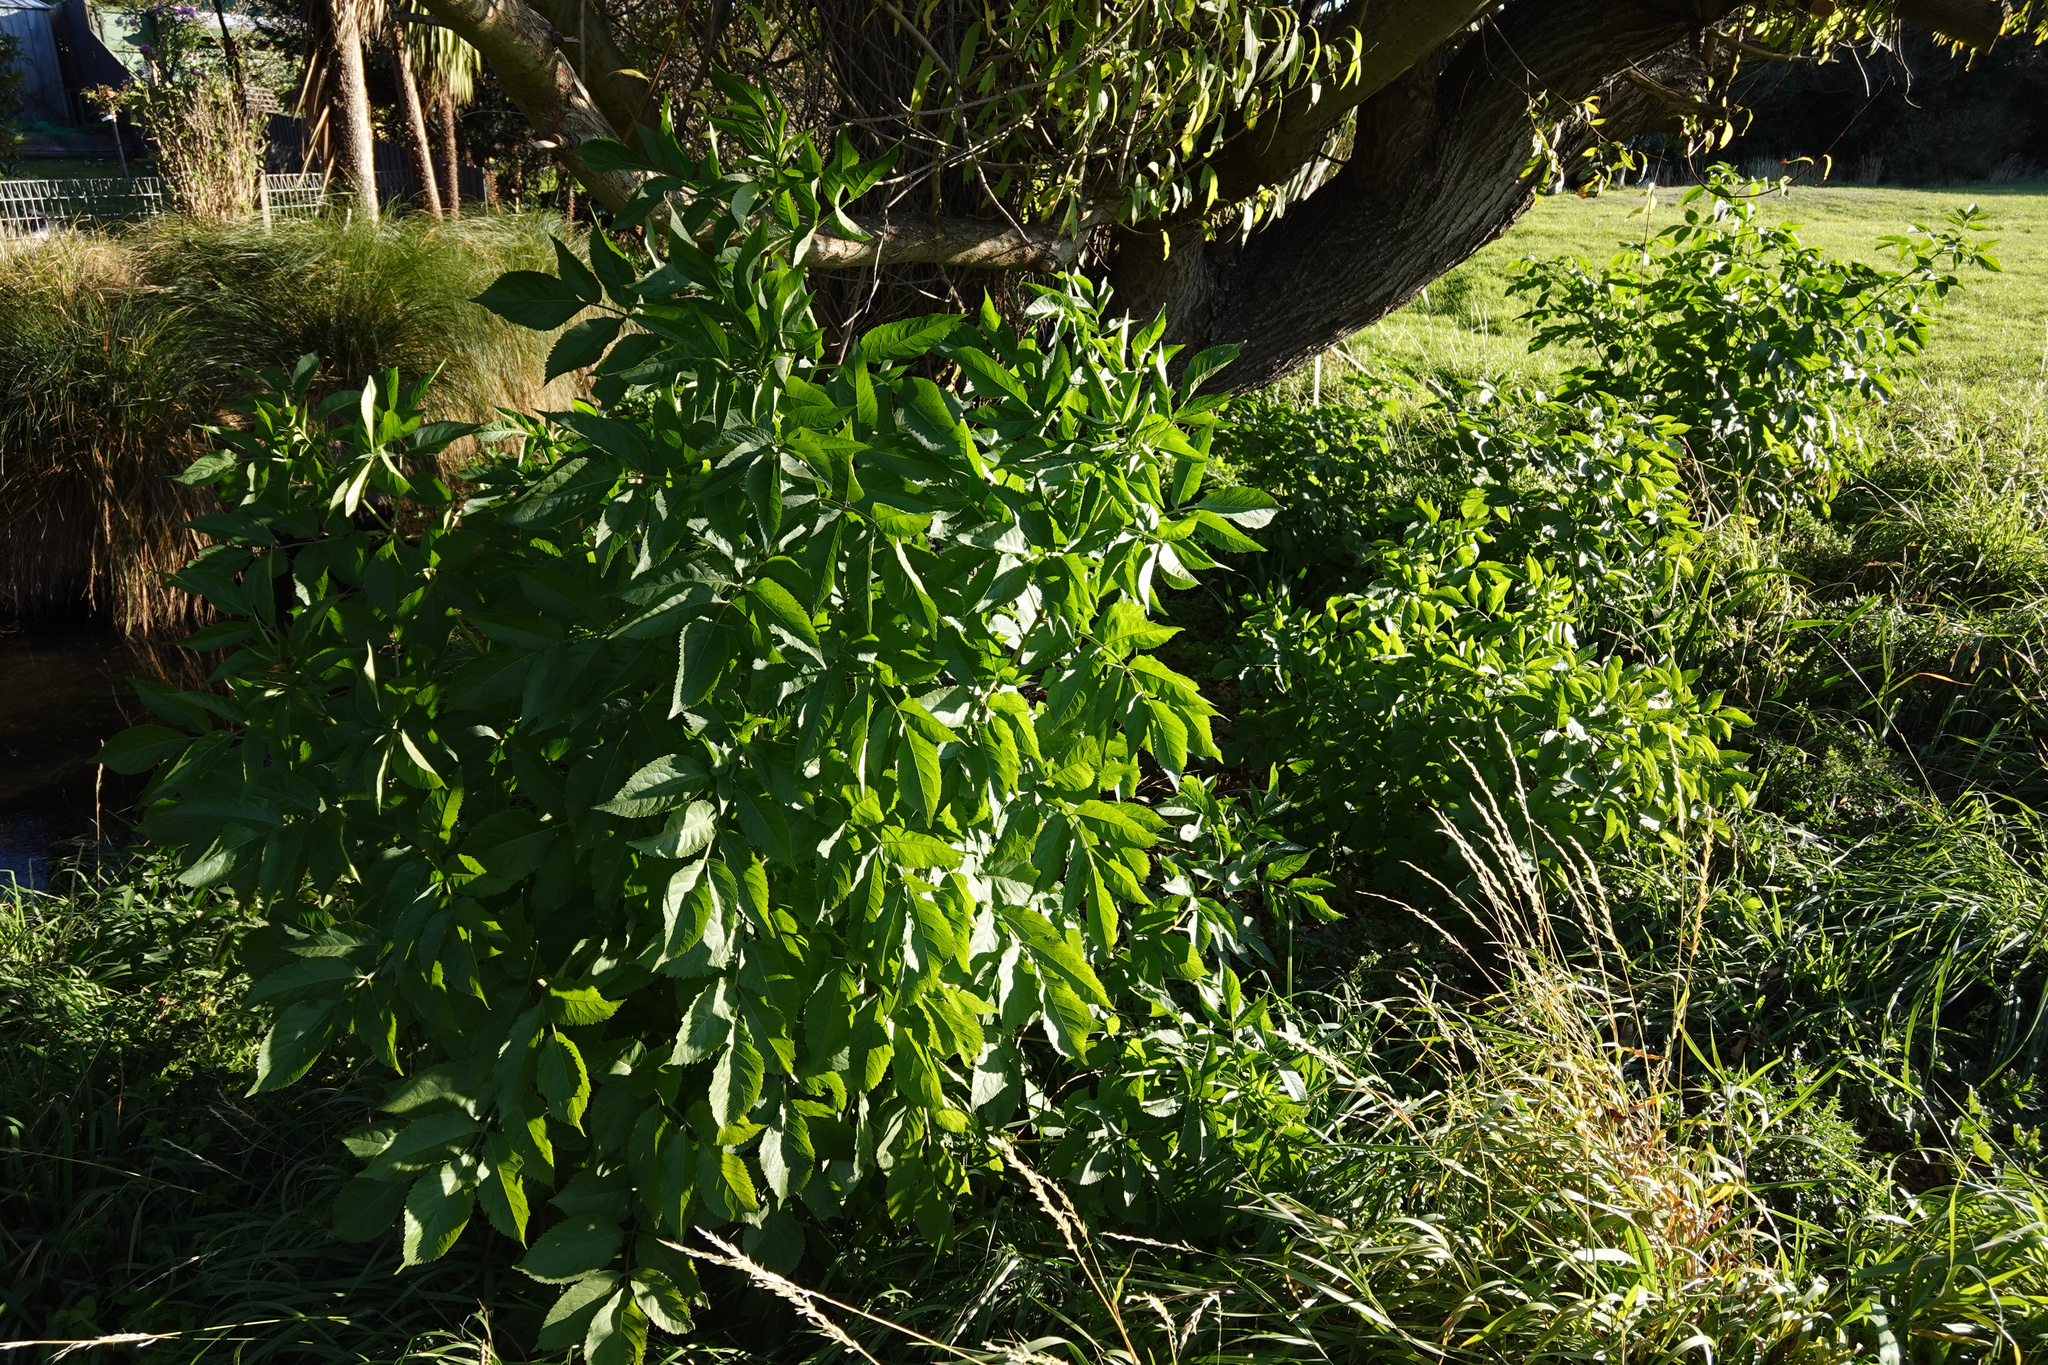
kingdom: Plantae
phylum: Tracheophyta
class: Magnoliopsida
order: Dipsacales
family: Viburnaceae
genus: Sambucus
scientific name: Sambucus nigra
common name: Elder
